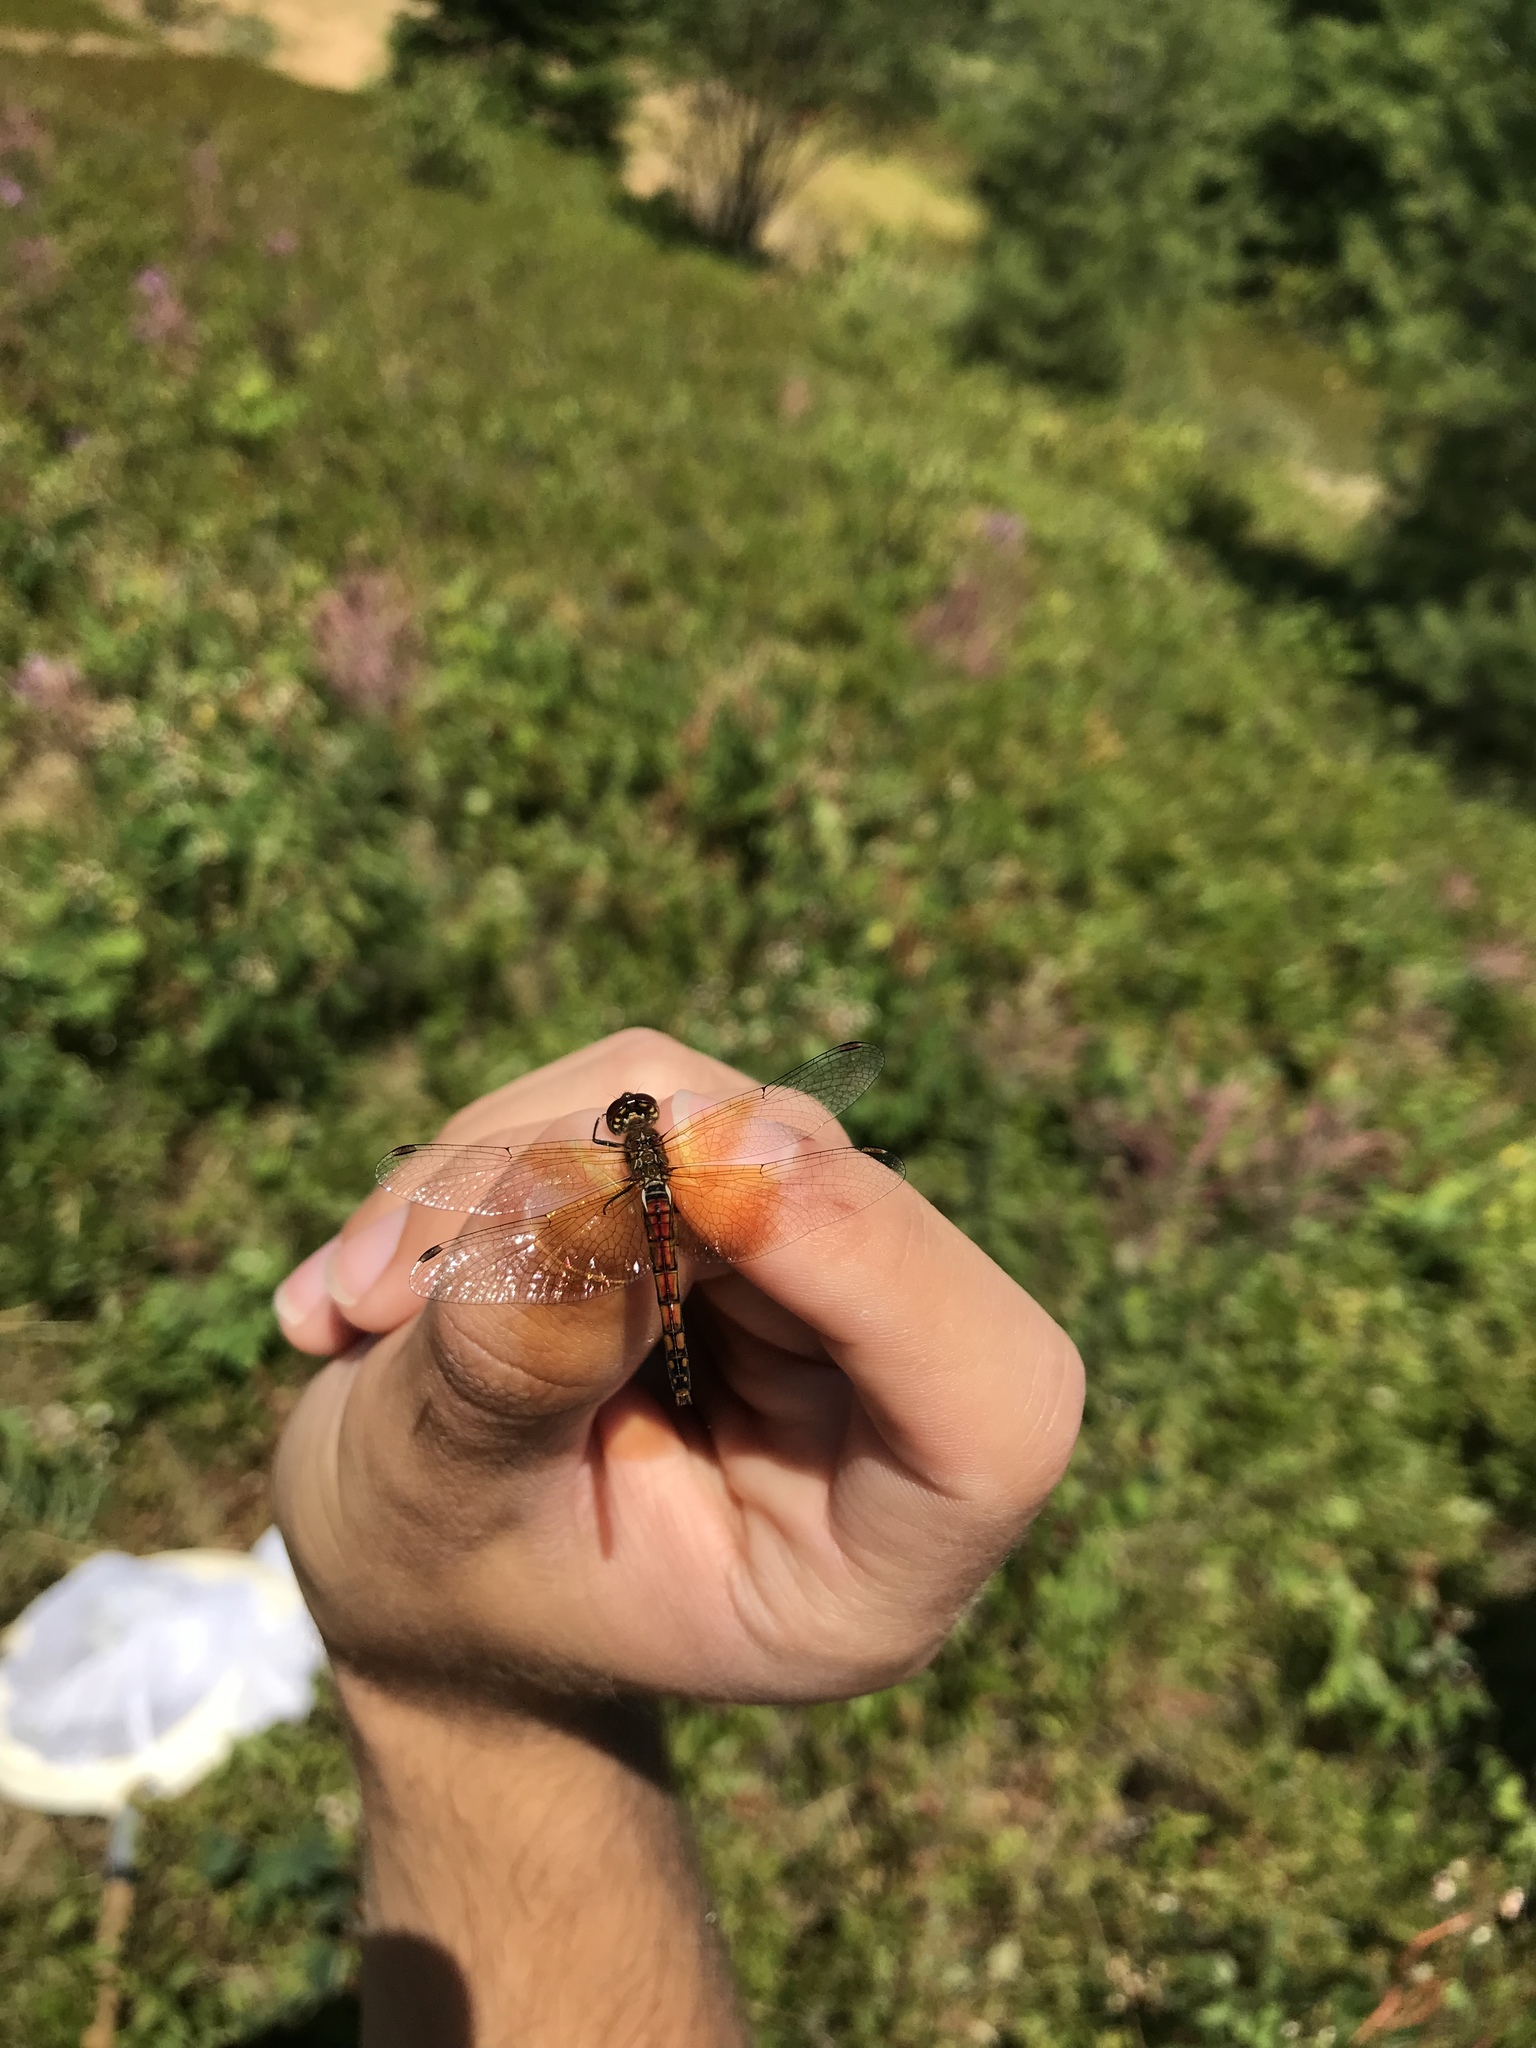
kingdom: Animalia
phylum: Arthropoda
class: Insecta
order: Odonata
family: Libellulidae
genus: Sympetrum
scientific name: Sympetrum semicinctum
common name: Band-winged meadowhawk
